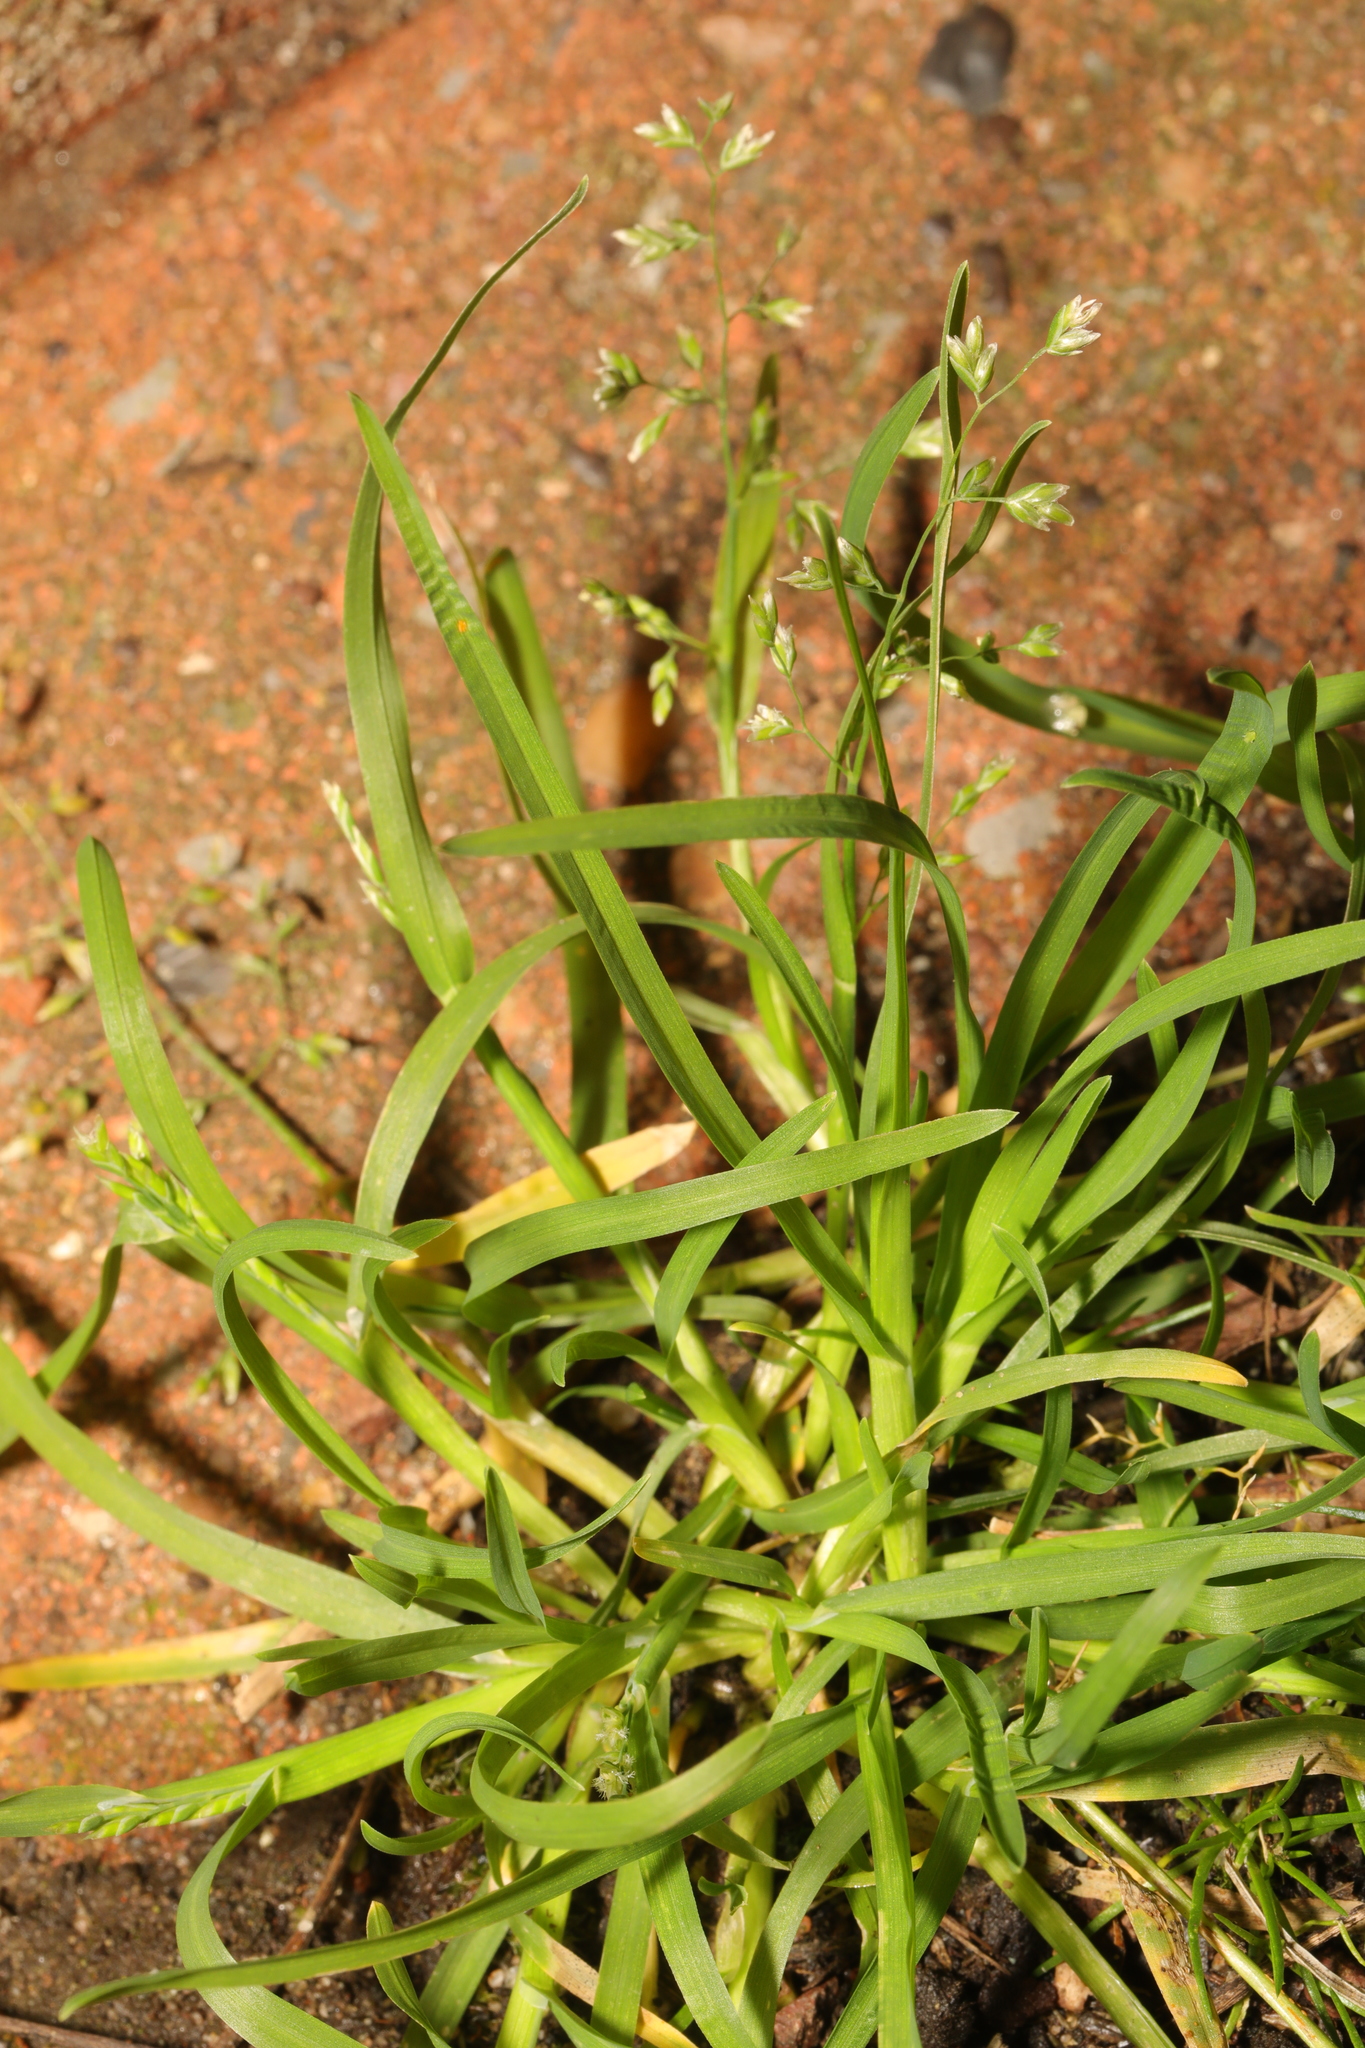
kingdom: Plantae
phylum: Tracheophyta
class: Liliopsida
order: Poales
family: Poaceae
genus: Poa
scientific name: Poa annua
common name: Annual bluegrass
